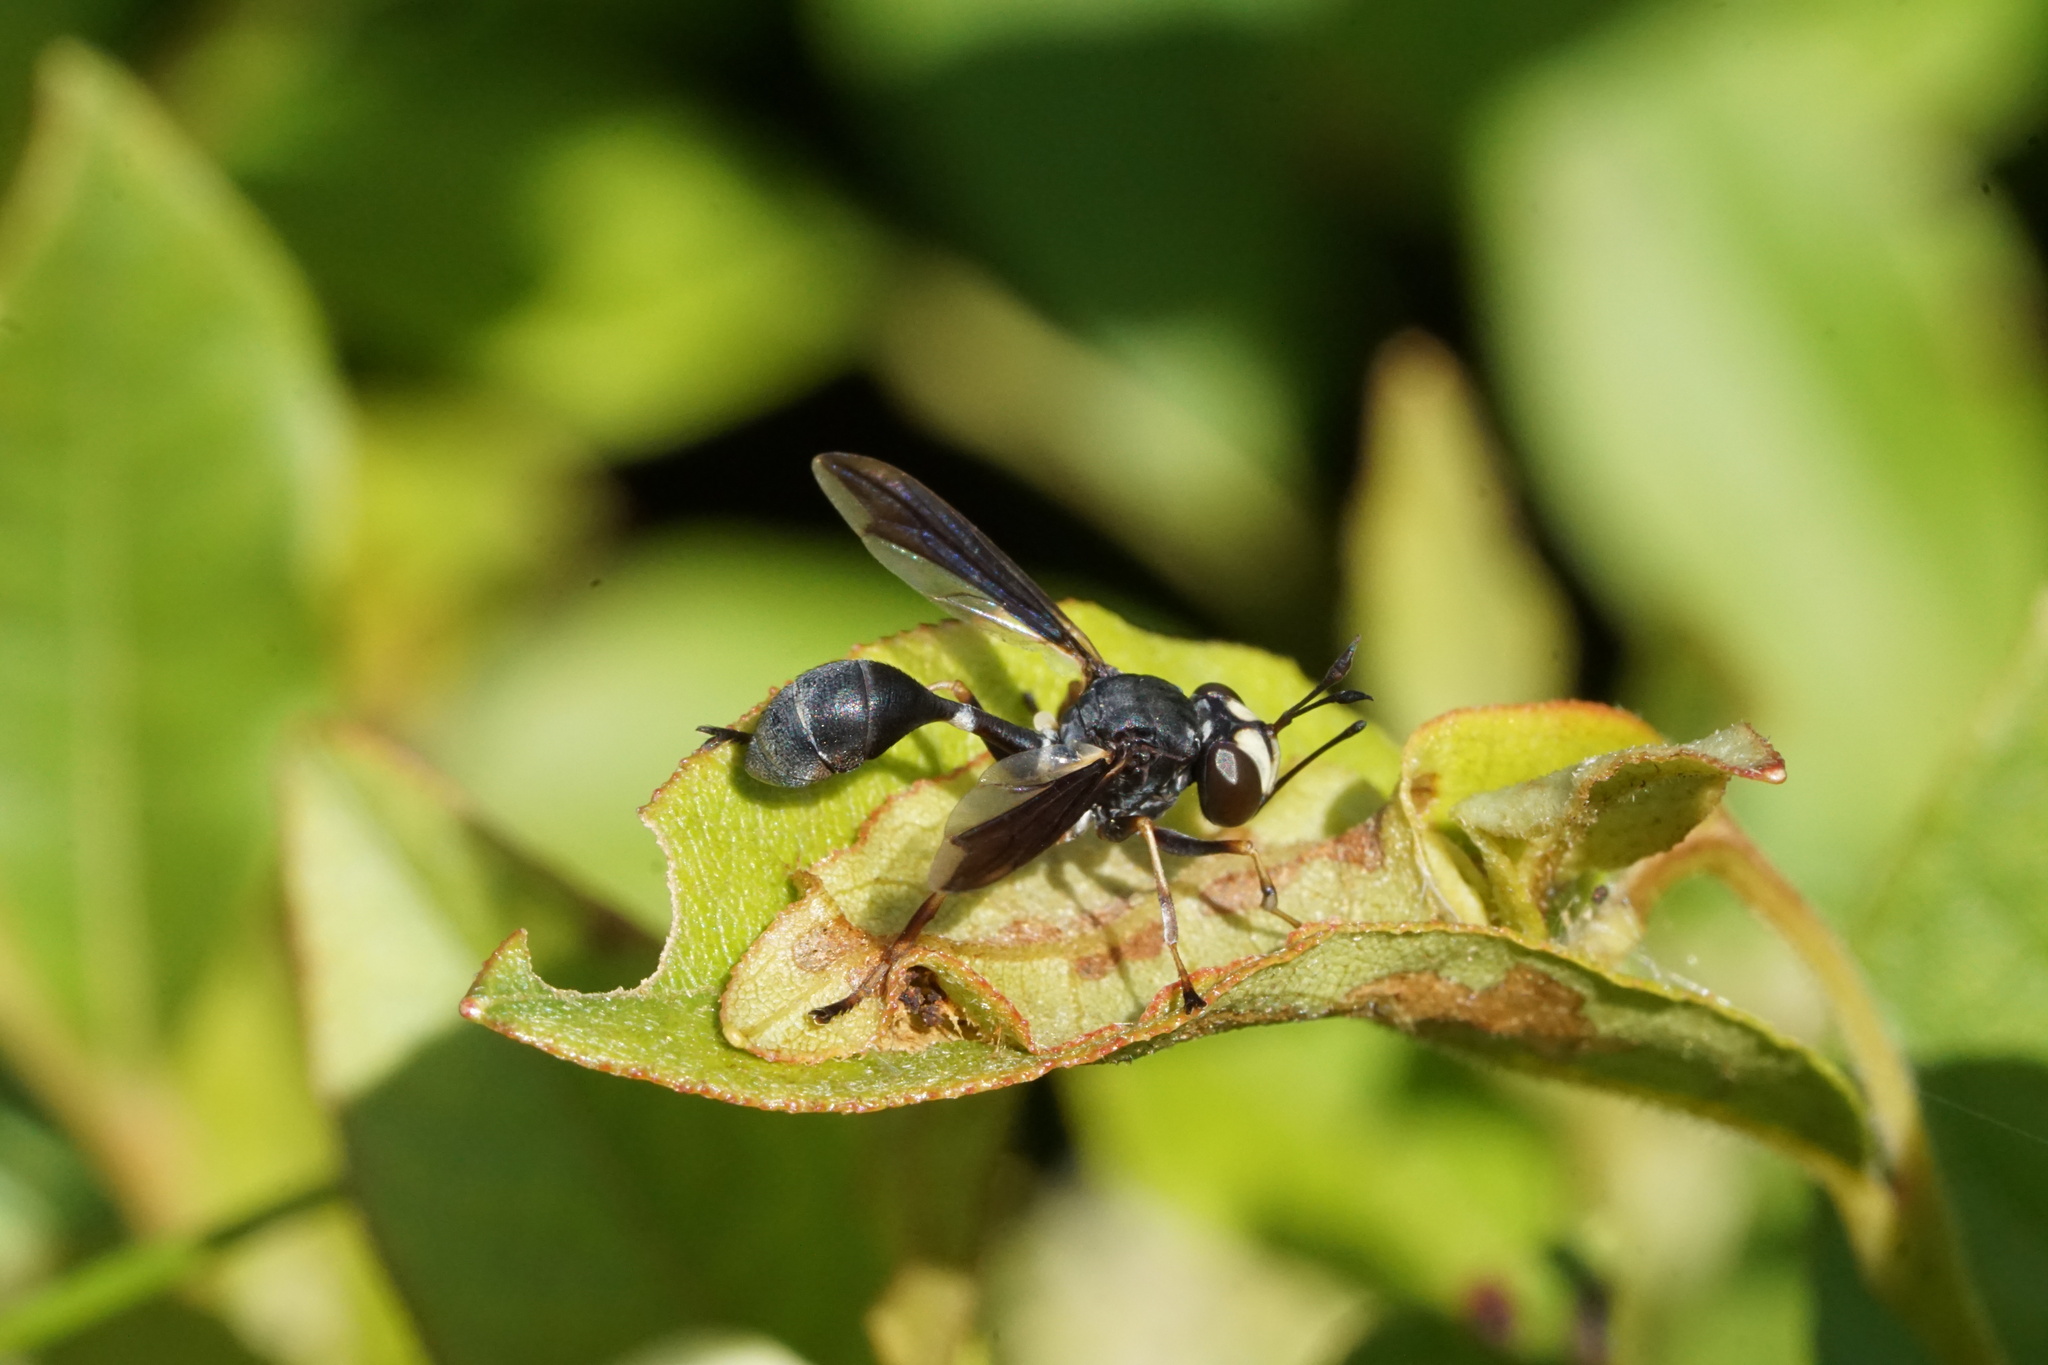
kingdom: Animalia
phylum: Arthropoda
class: Insecta
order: Diptera
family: Conopidae
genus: Physocephala
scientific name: Physocephala tibialis
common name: Common eastern physocephala
